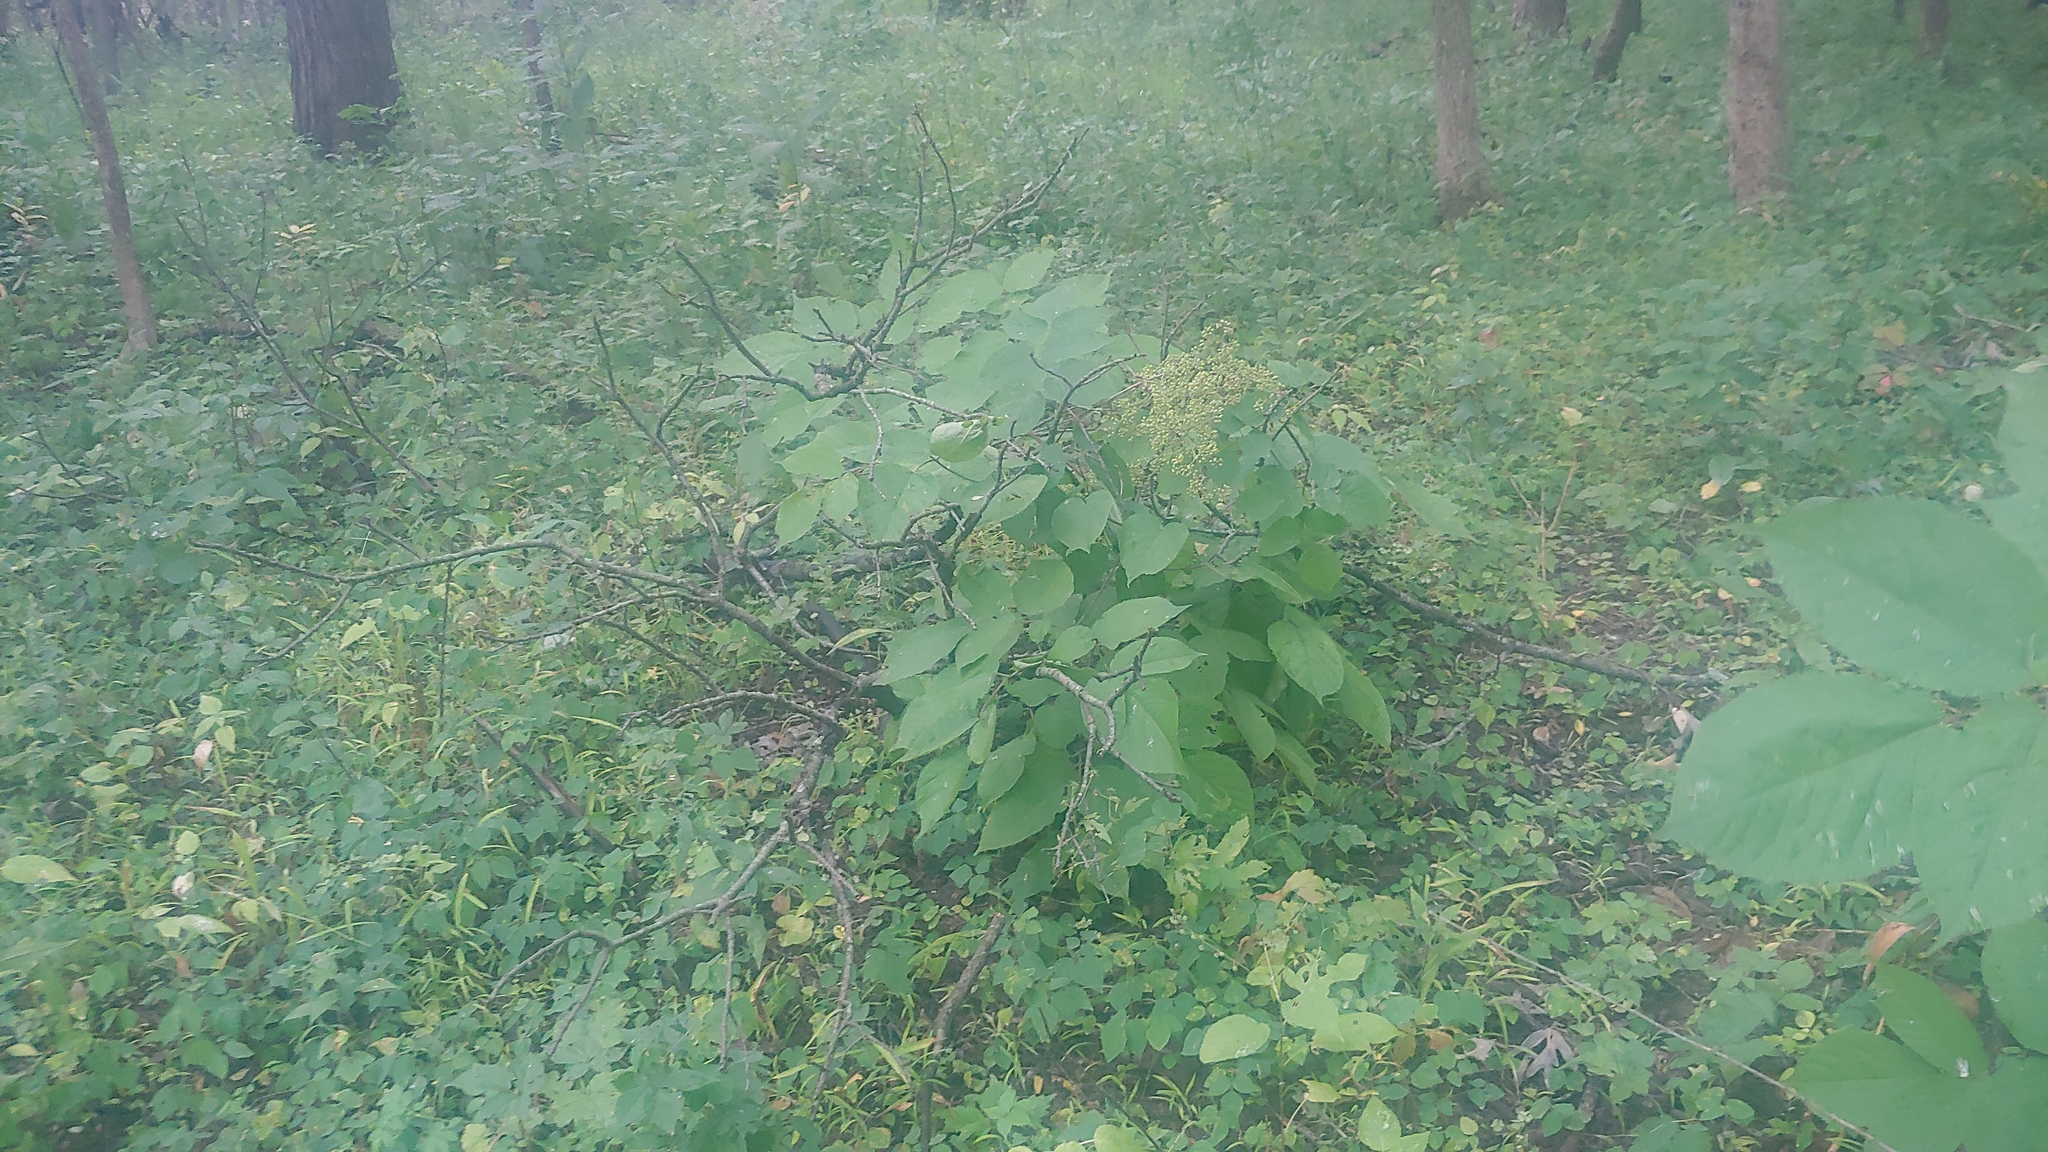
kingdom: Plantae
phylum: Tracheophyta
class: Magnoliopsida
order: Apiales
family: Araliaceae
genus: Aralia
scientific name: Aralia racemosa
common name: American-spikenard
